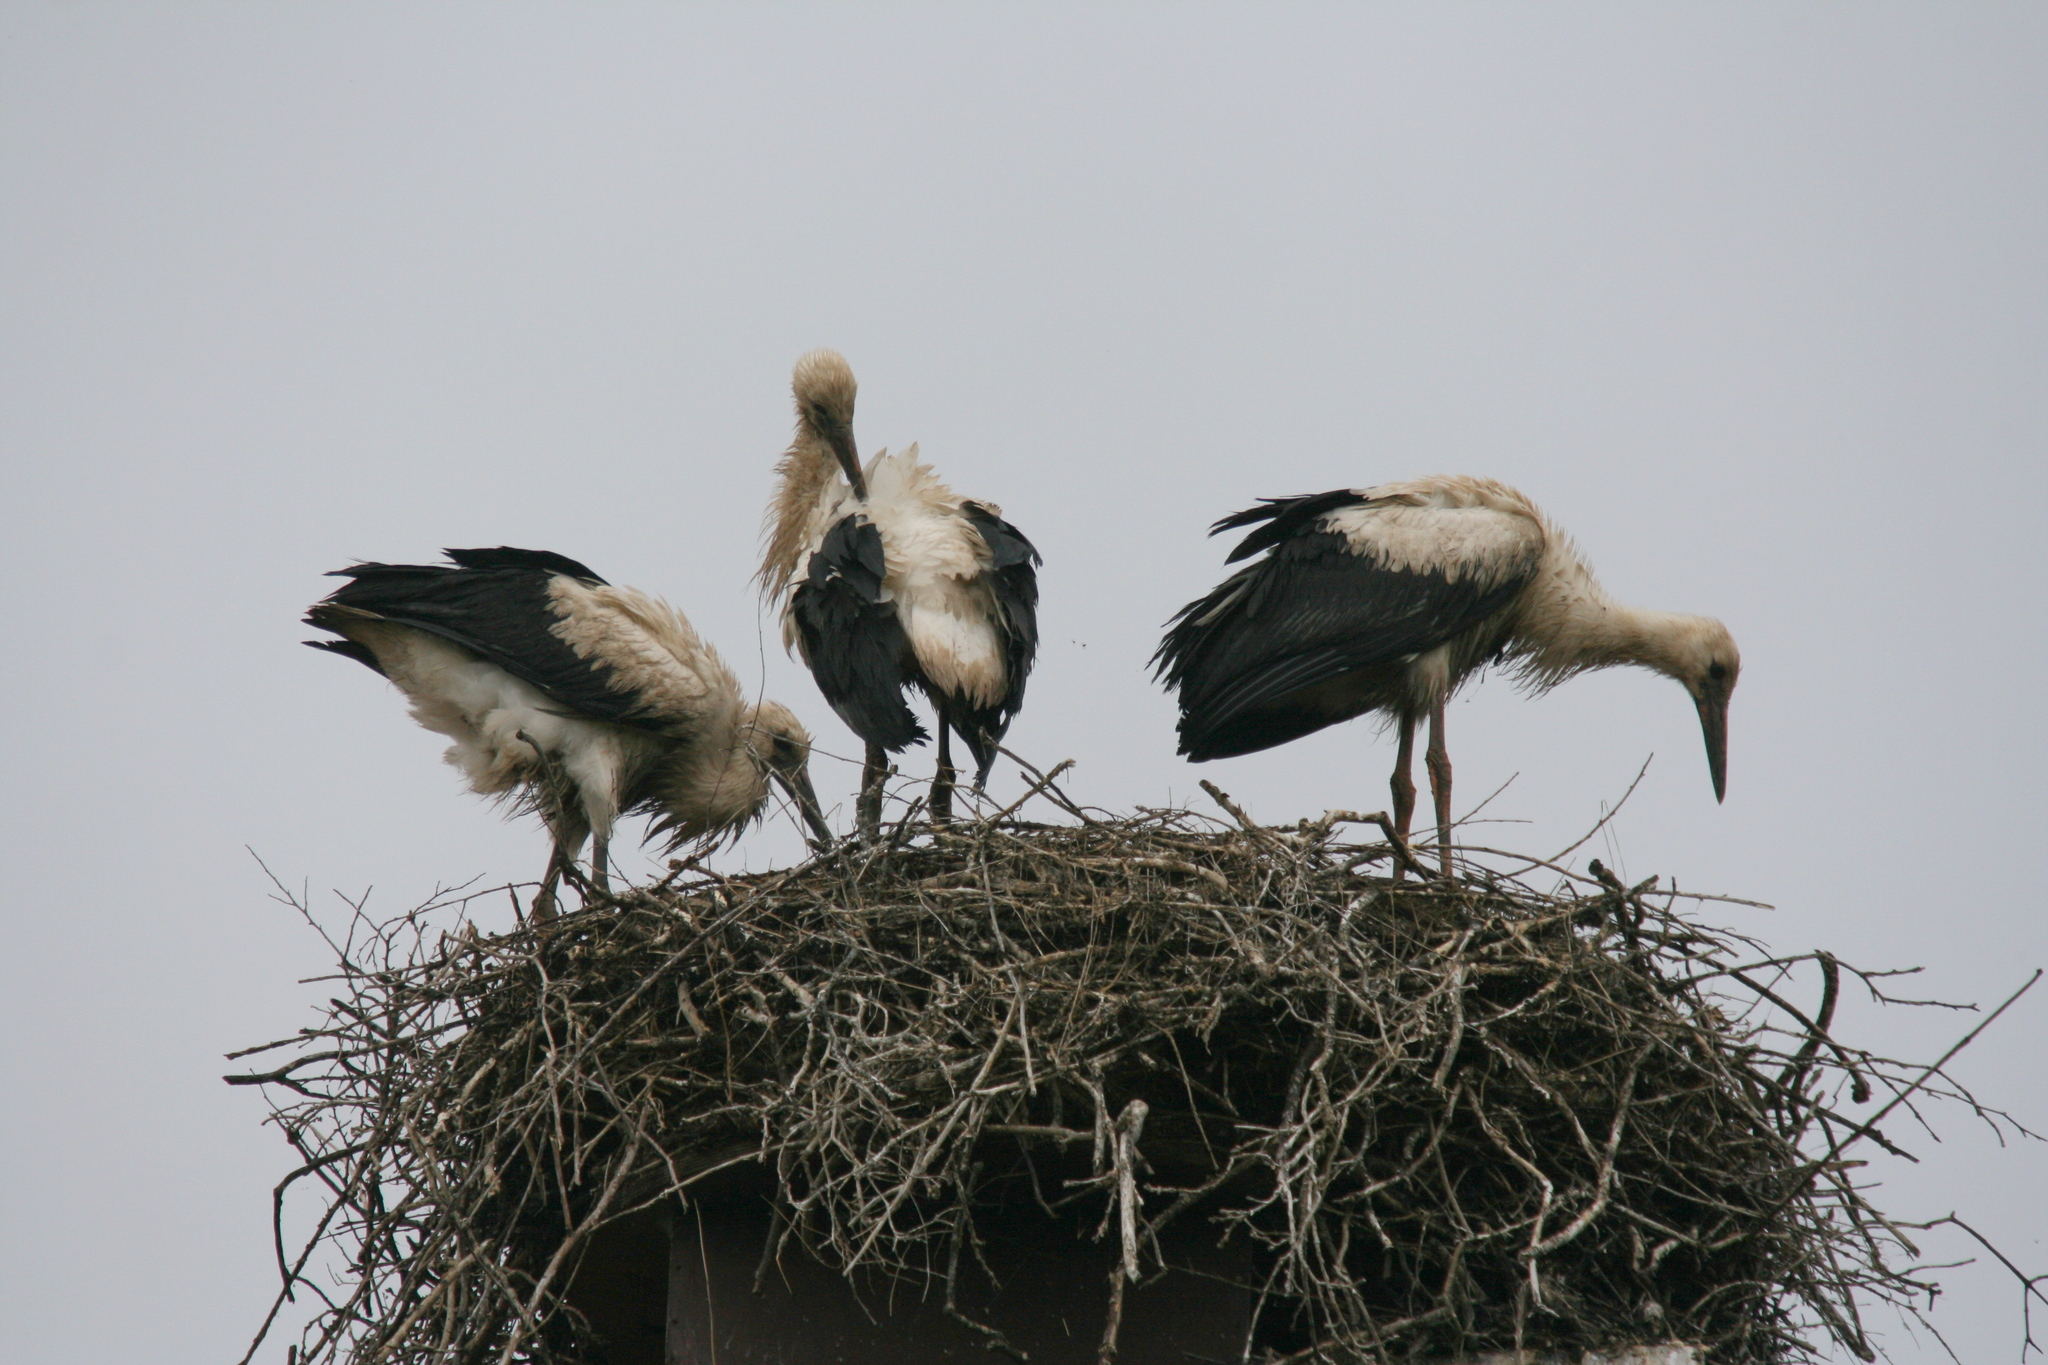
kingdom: Animalia
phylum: Chordata
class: Aves
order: Ciconiiformes
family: Ciconiidae
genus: Ciconia
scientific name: Ciconia ciconia
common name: White stork
